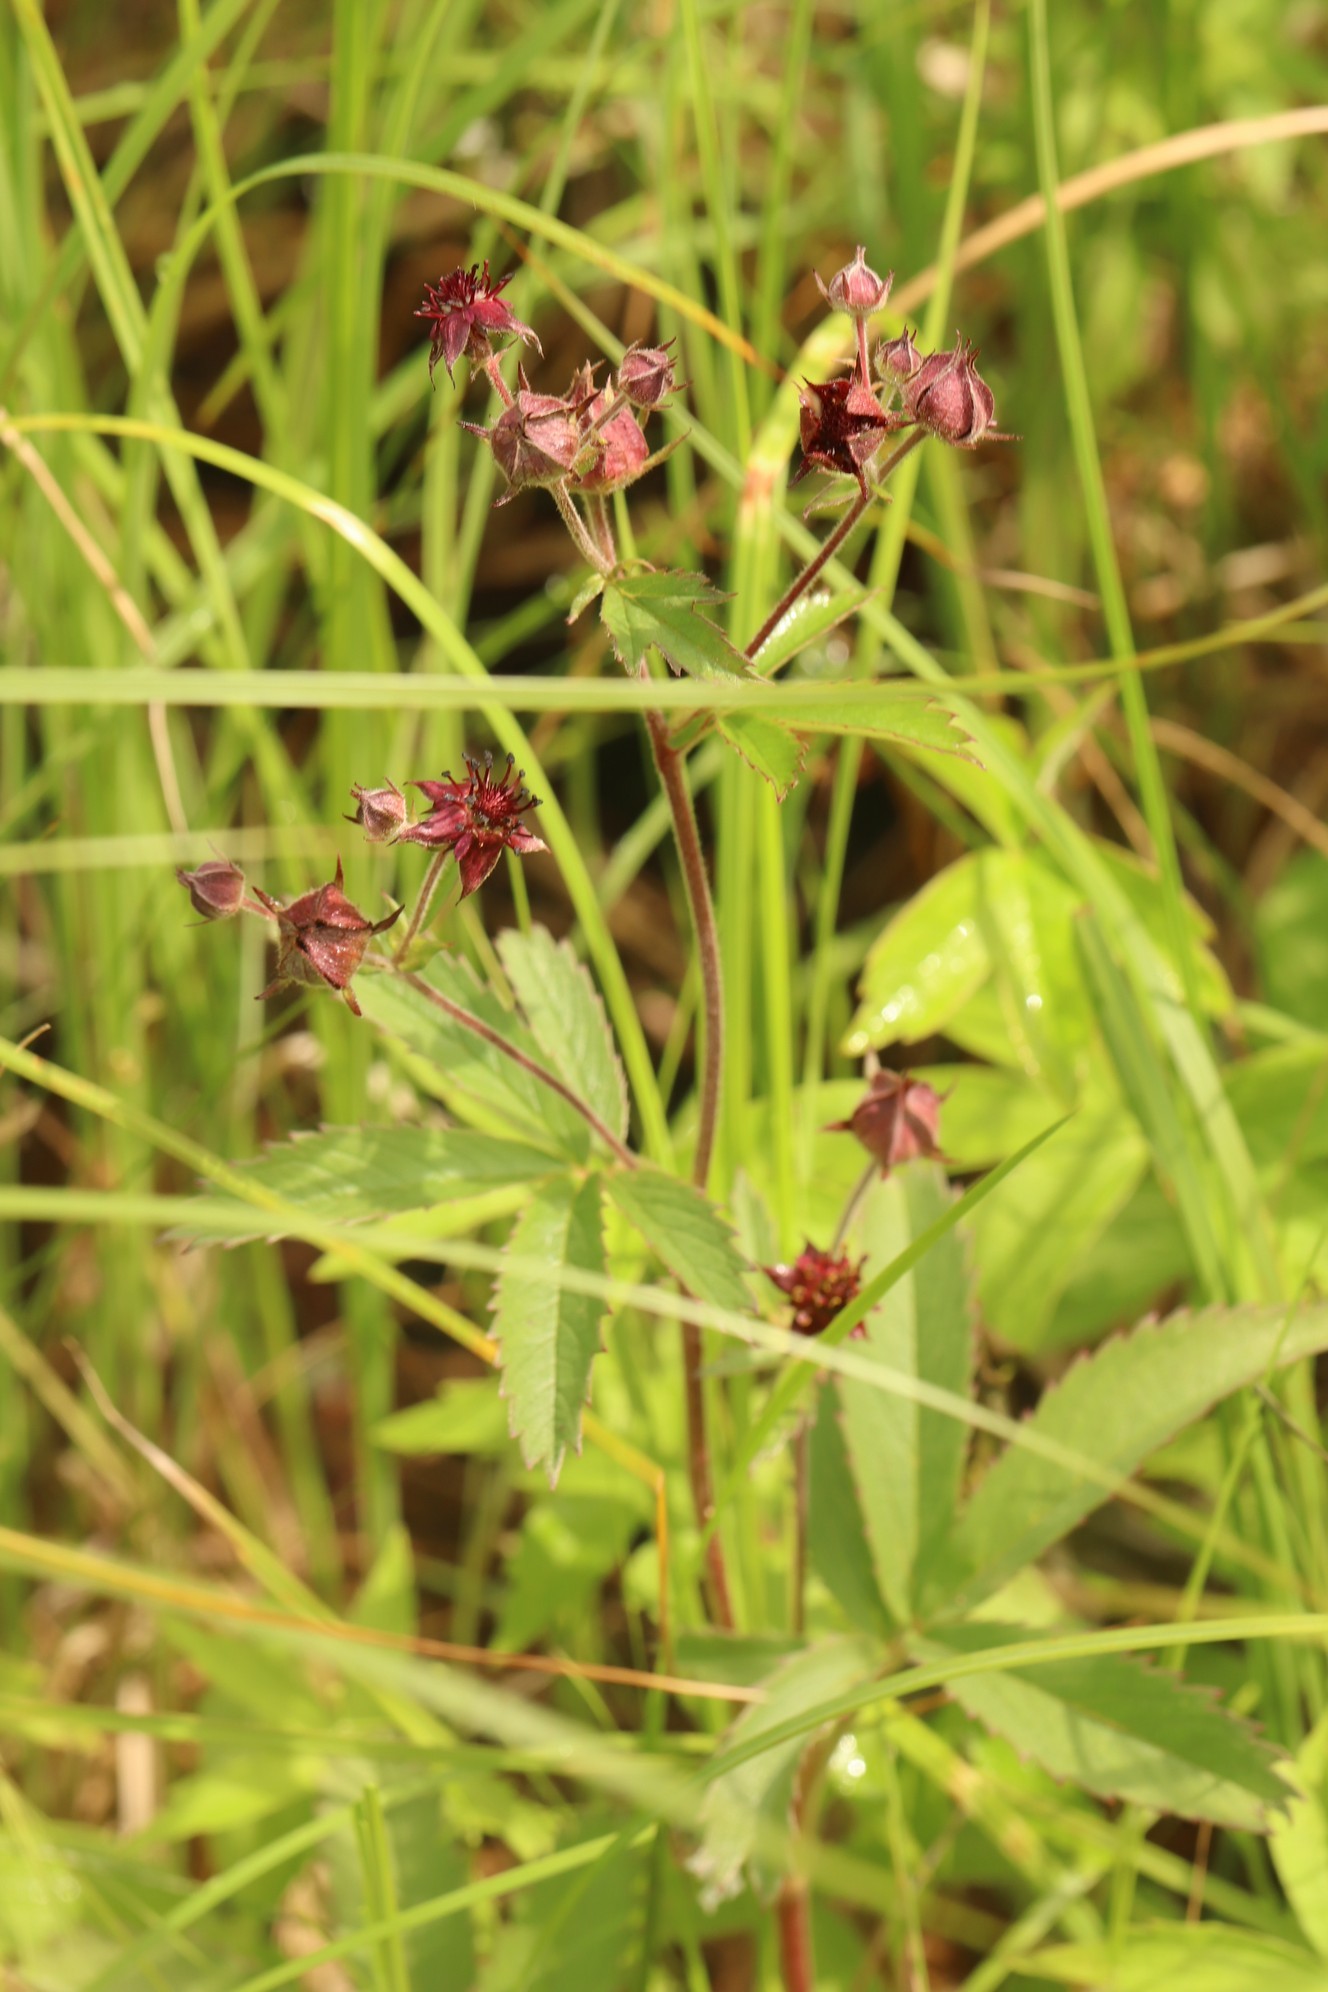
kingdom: Plantae
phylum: Tracheophyta
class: Magnoliopsida
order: Rosales
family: Rosaceae
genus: Comarum
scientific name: Comarum palustre
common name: Marsh cinquefoil
